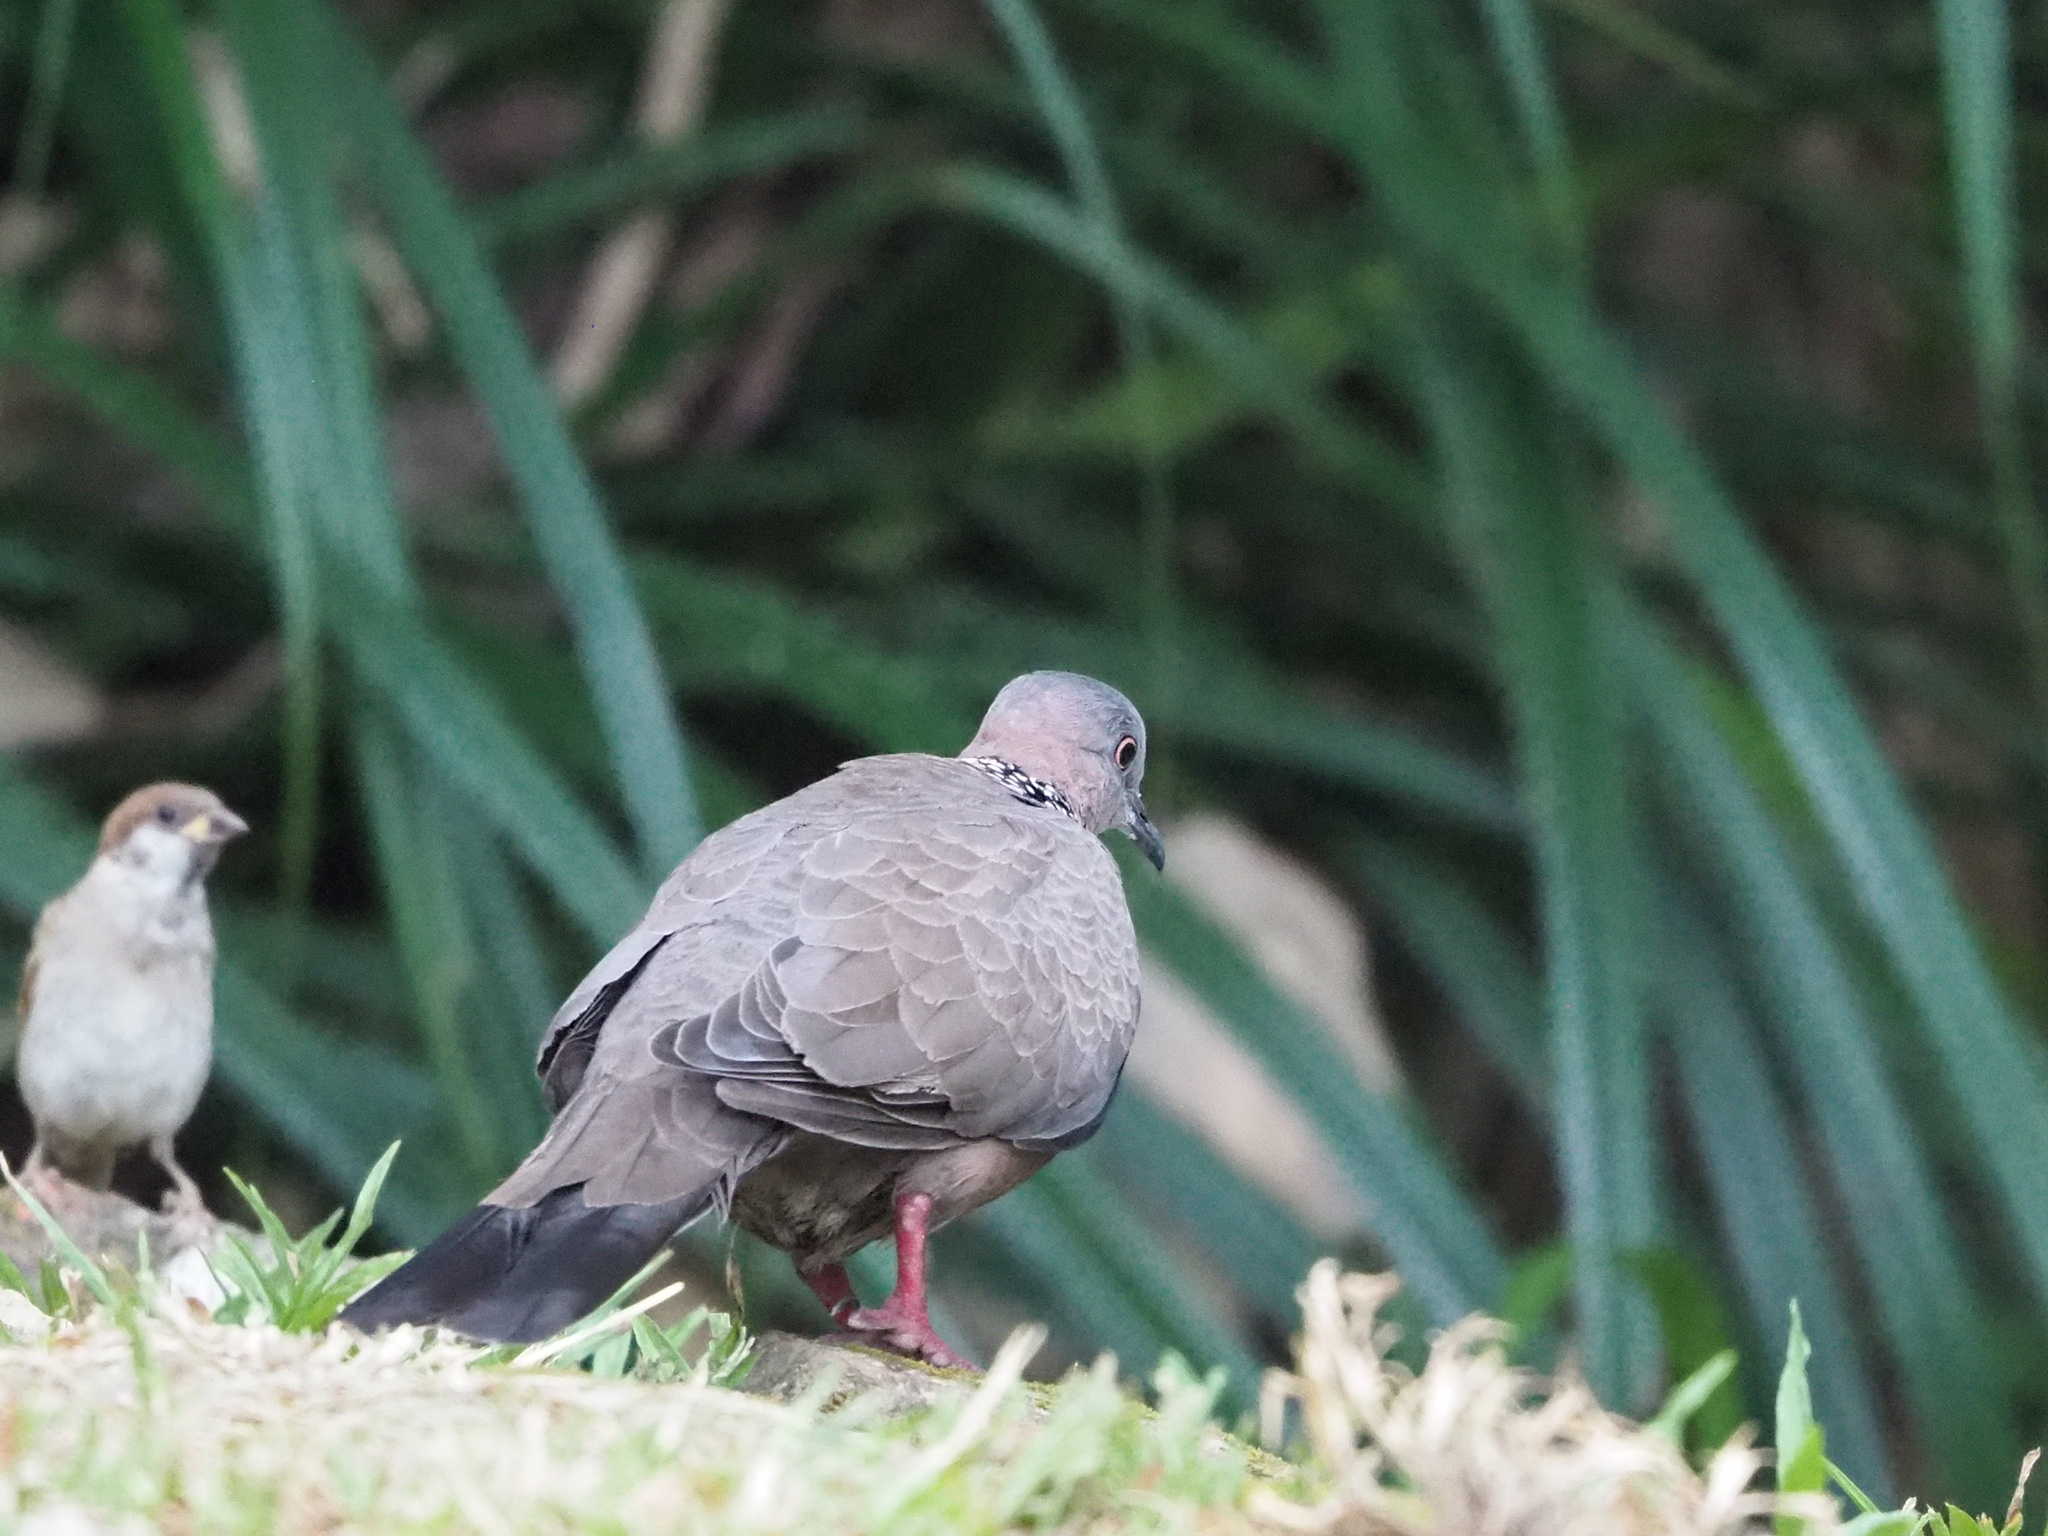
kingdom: Animalia
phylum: Chordata
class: Aves
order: Columbiformes
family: Columbidae
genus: Spilopelia
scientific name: Spilopelia chinensis
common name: Spotted dove
